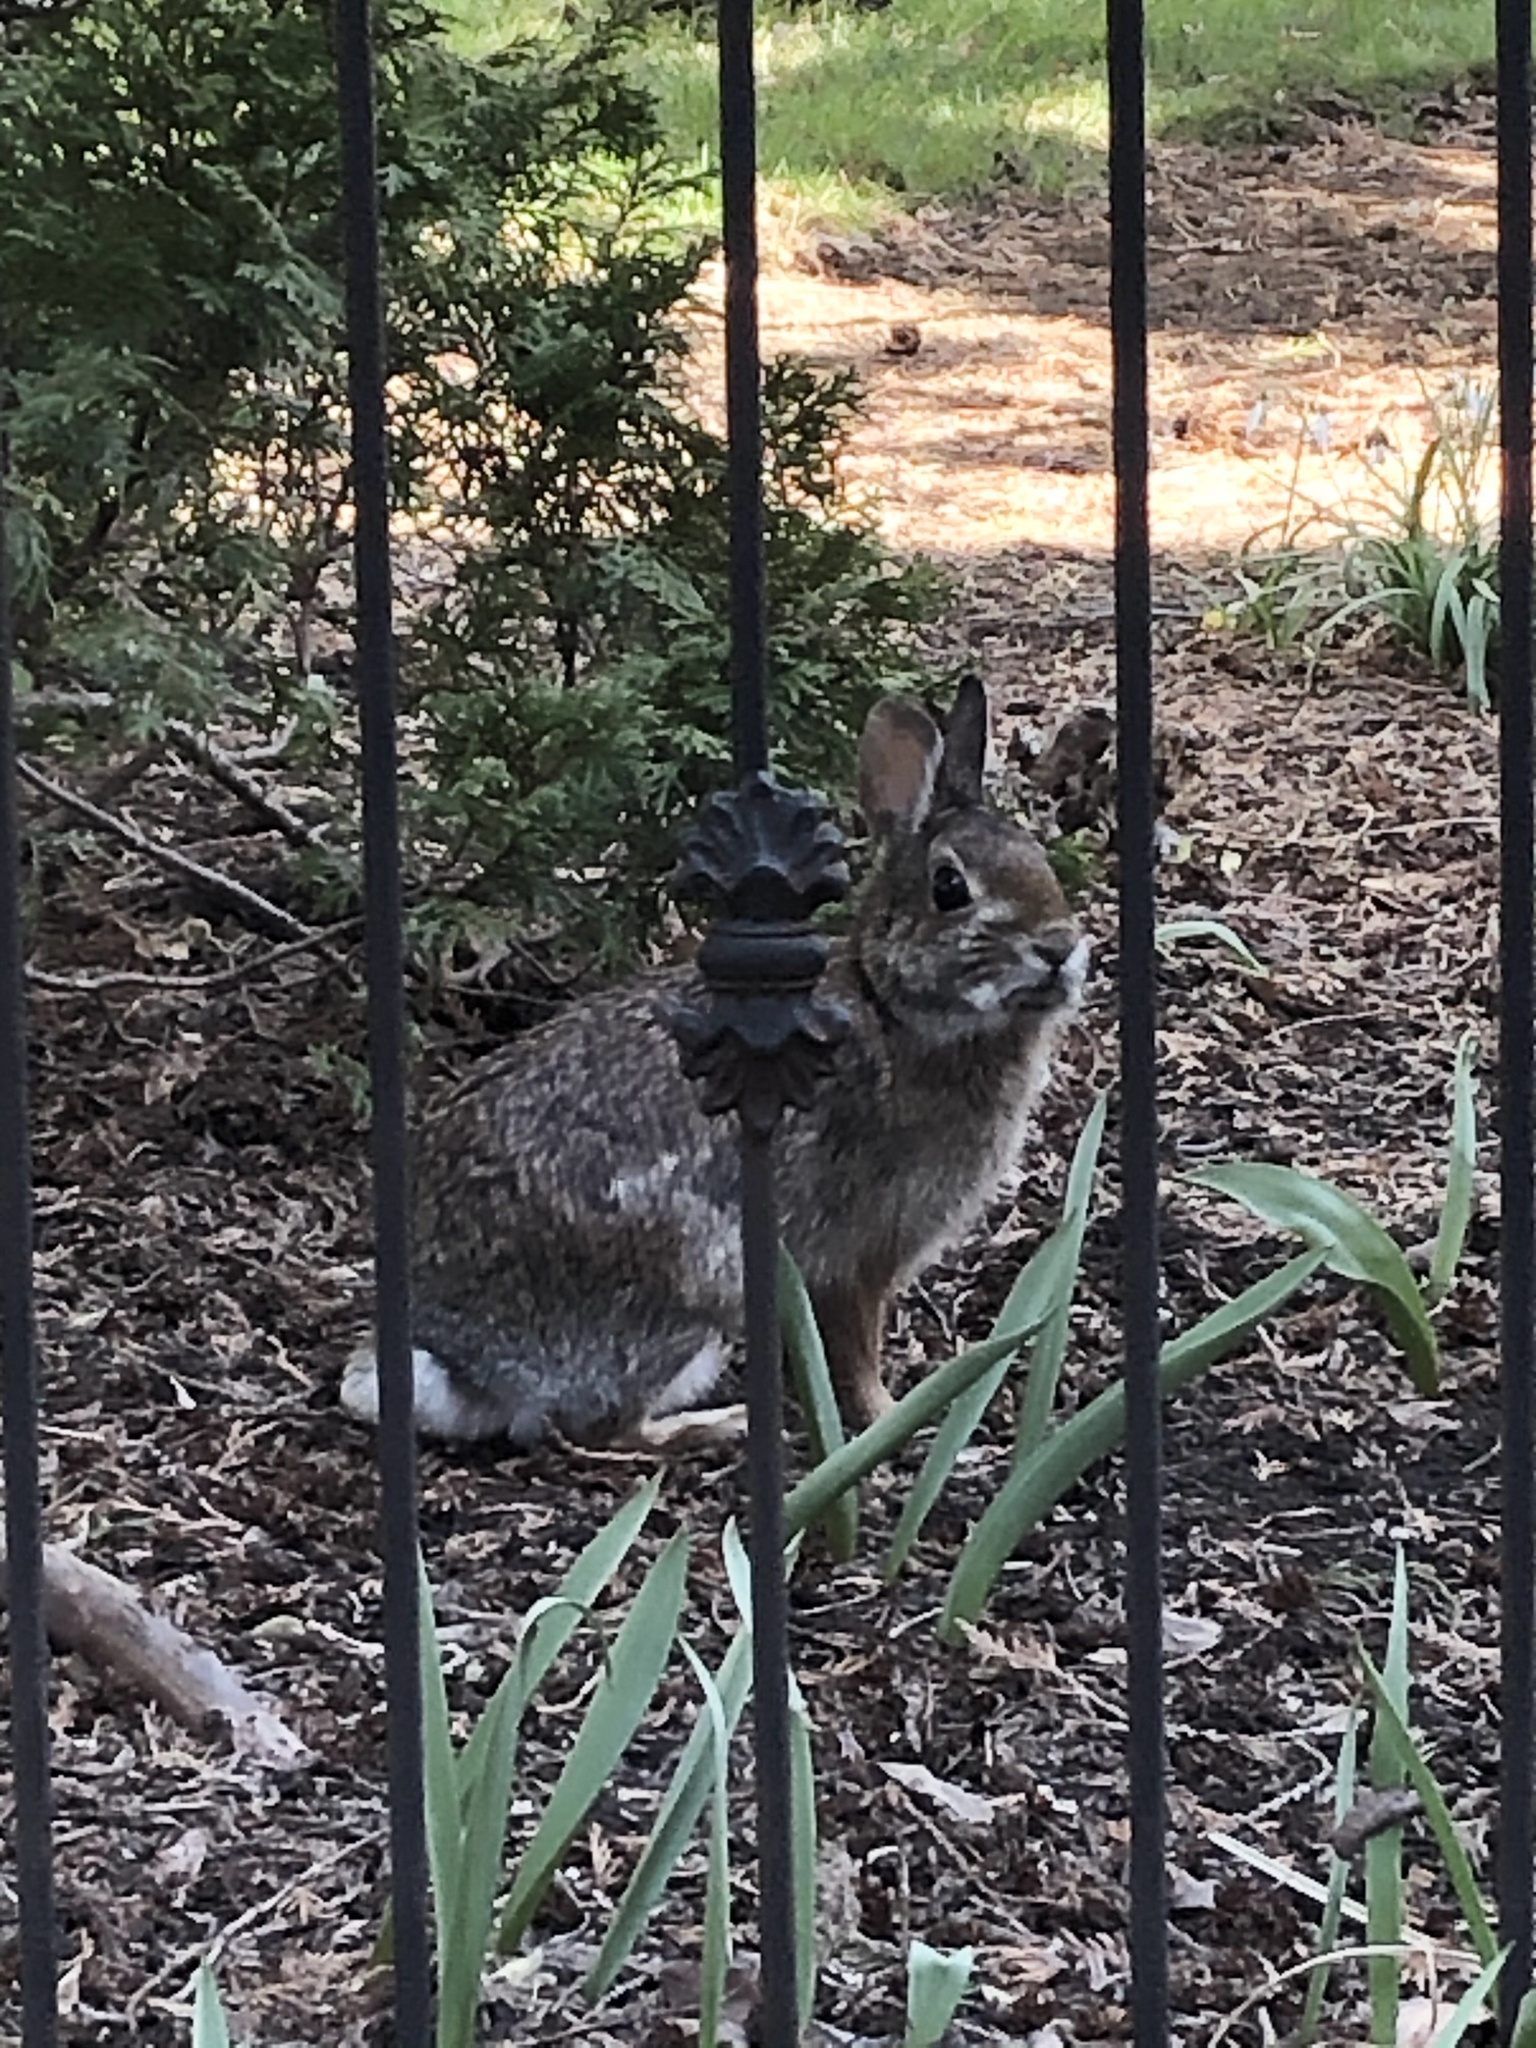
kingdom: Animalia
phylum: Chordata
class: Mammalia
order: Lagomorpha
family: Leporidae
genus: Sylvilagus
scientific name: Sylvilagus floridanus
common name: Eastern cottontail
